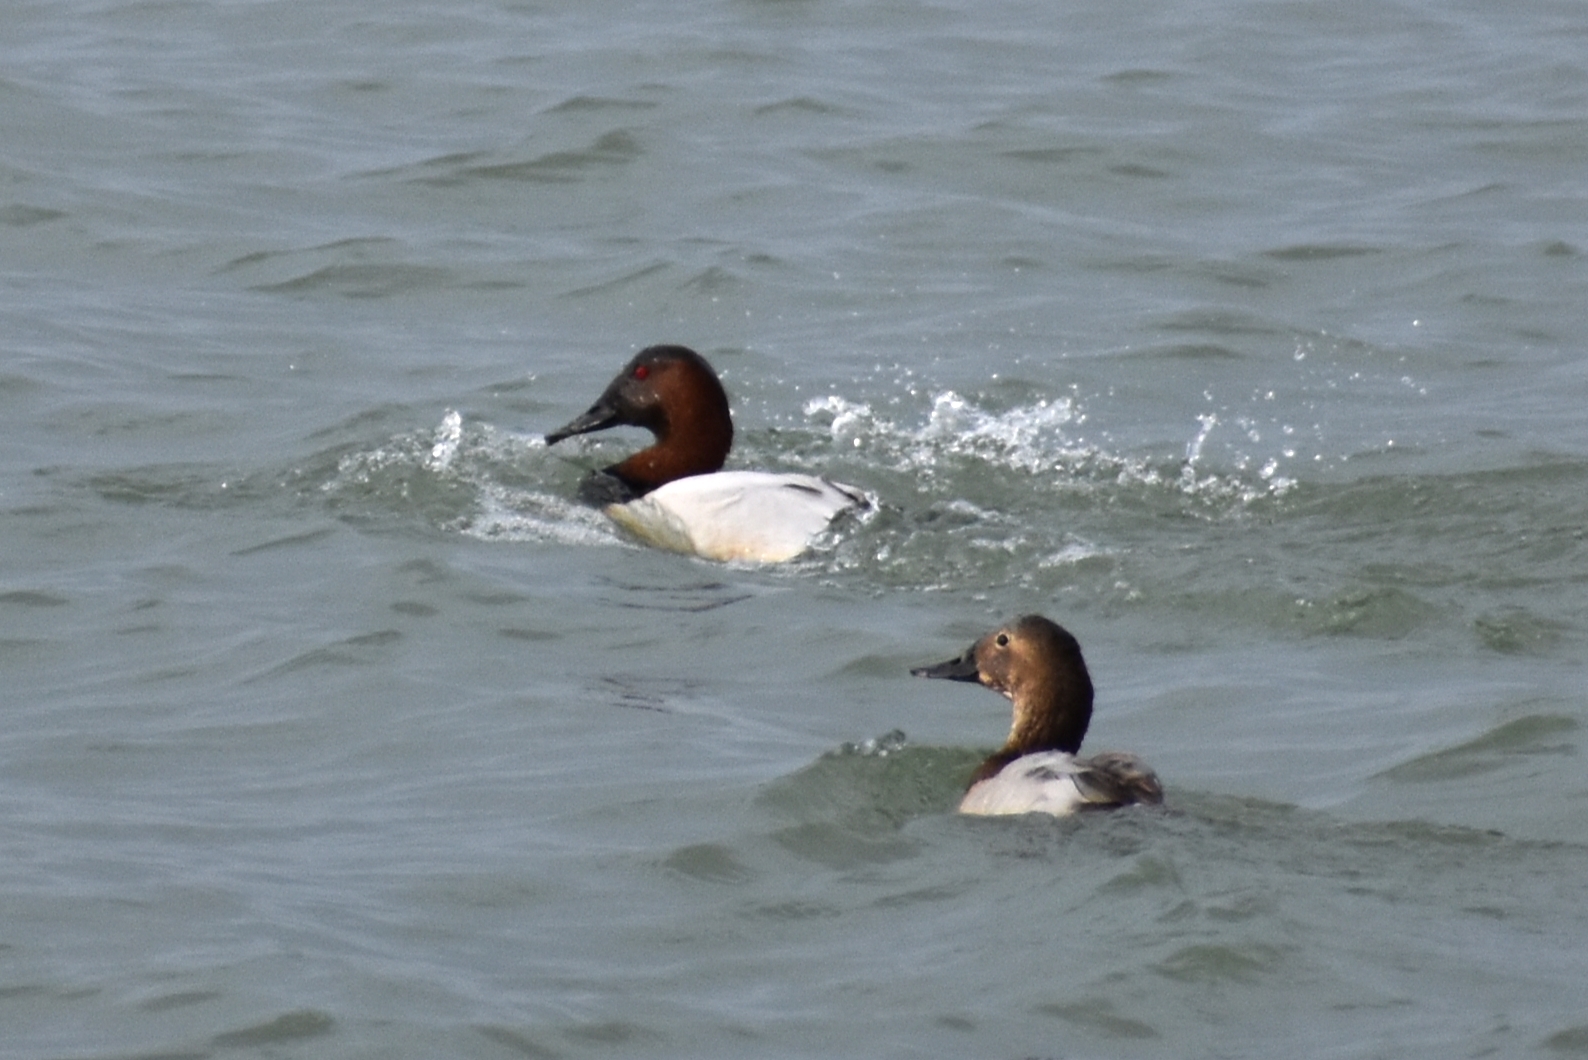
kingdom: Animalia
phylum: Chordata
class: Aves
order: Anseriformes
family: Anatidae
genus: Aythya
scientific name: Aythya valisineria
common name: Canvasback
